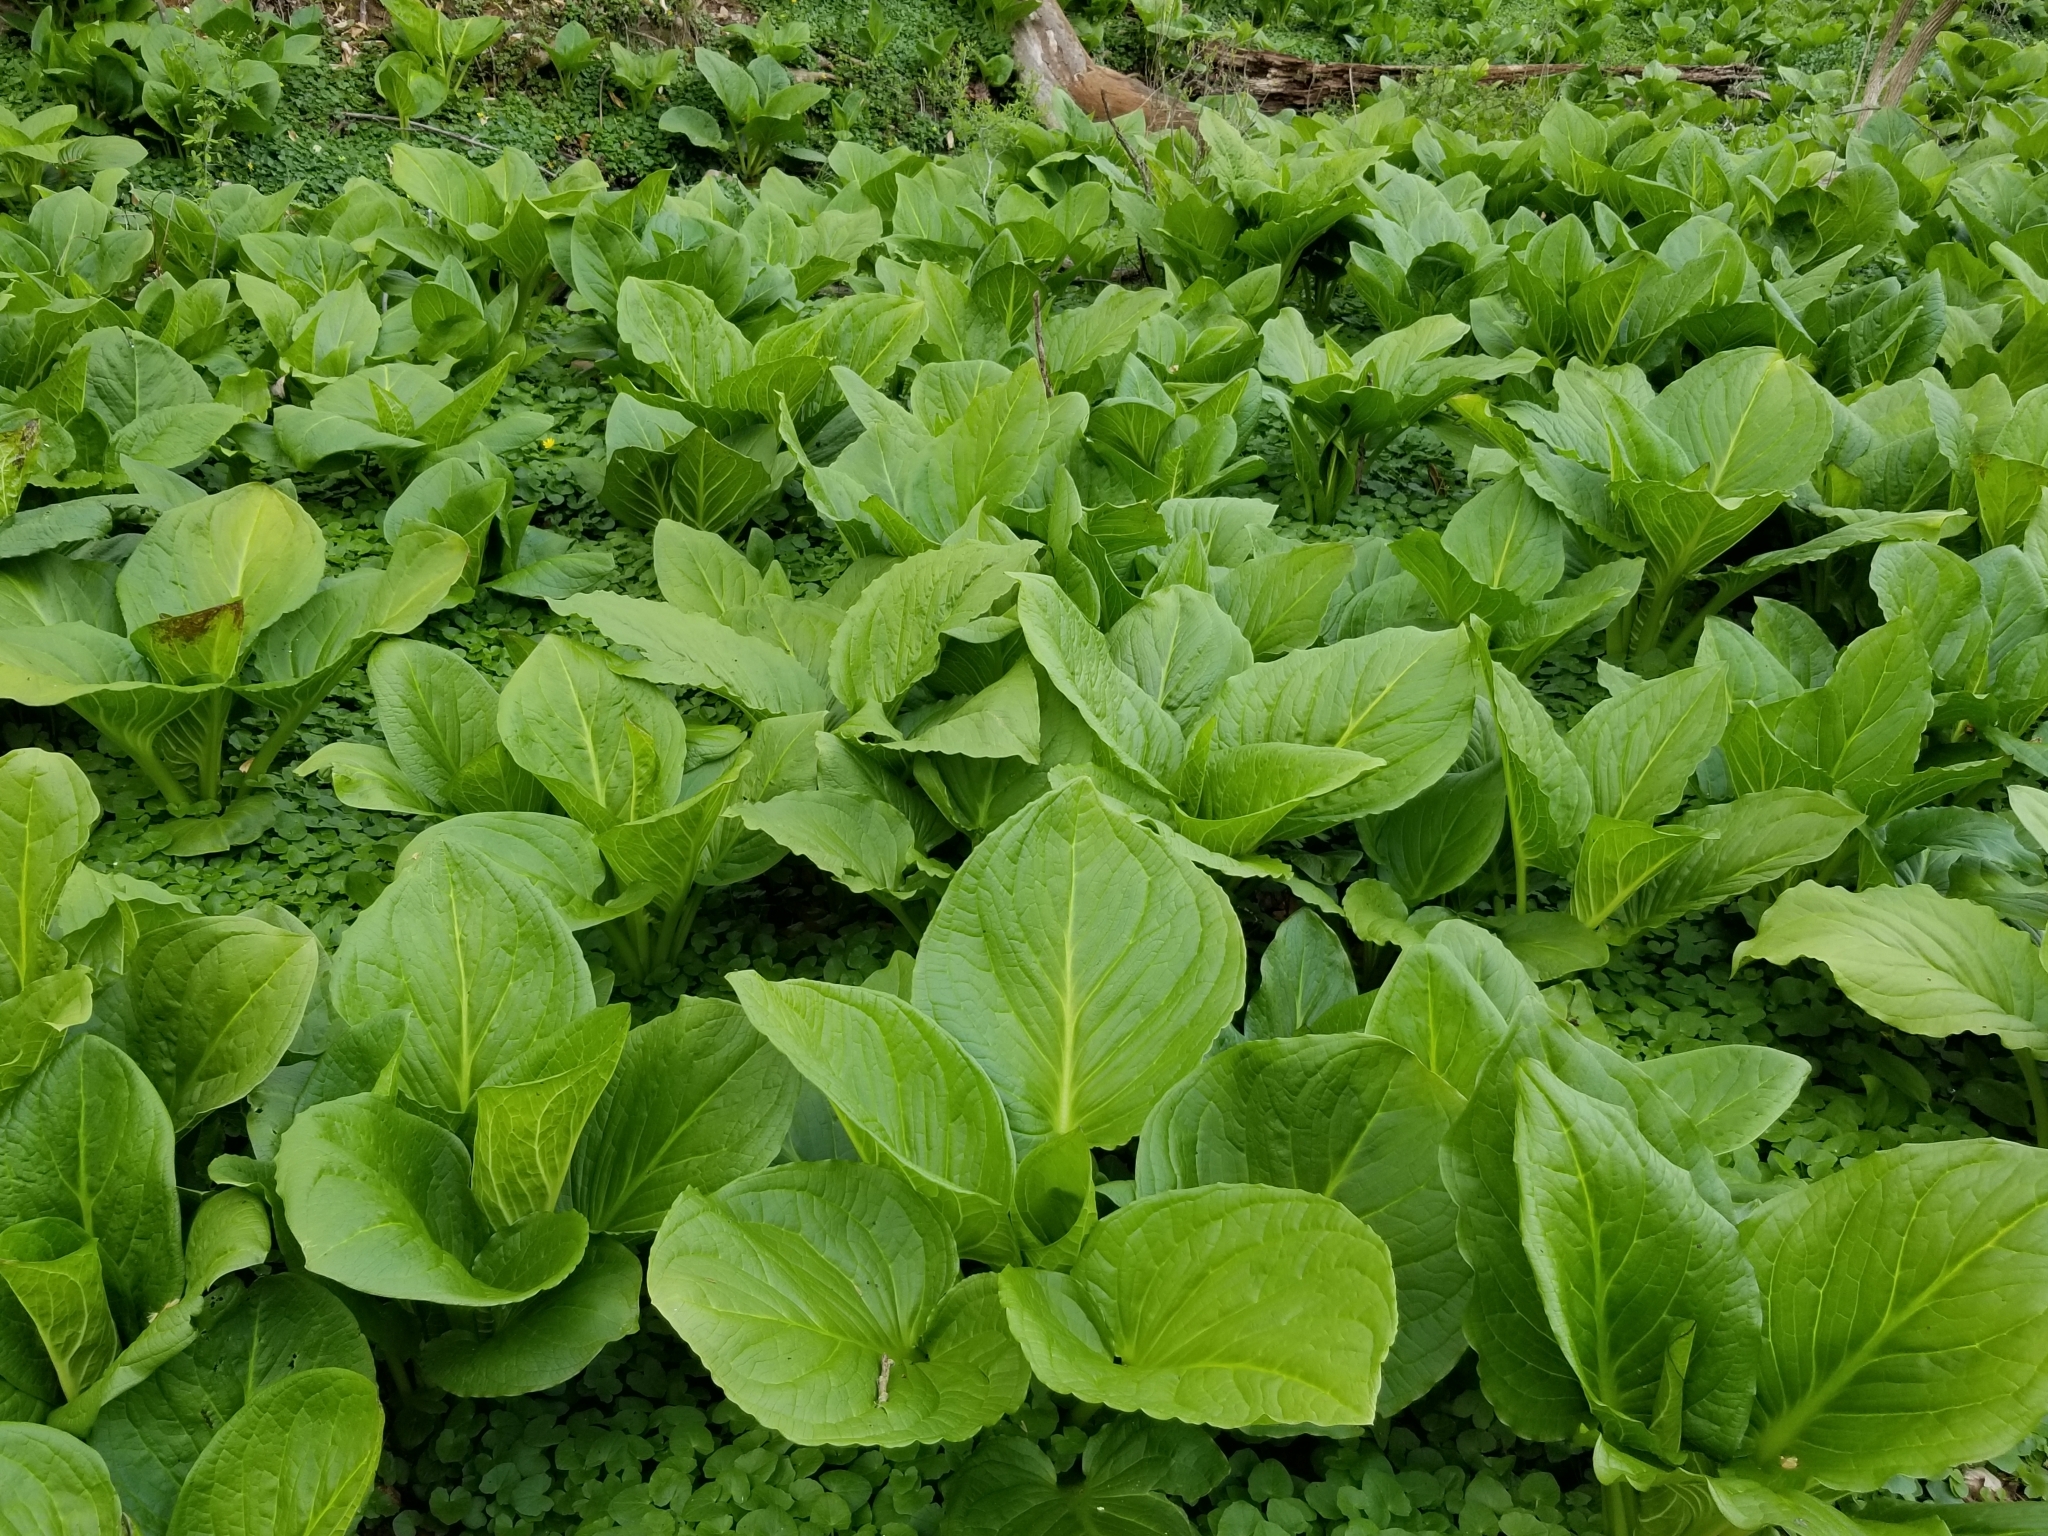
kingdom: Plantae
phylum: Tracheophyta
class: Liliopsida
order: Alismatales
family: Araceae
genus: Symplocarpus
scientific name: Symplocarpus foetidus
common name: Eastern skunk cabbage
